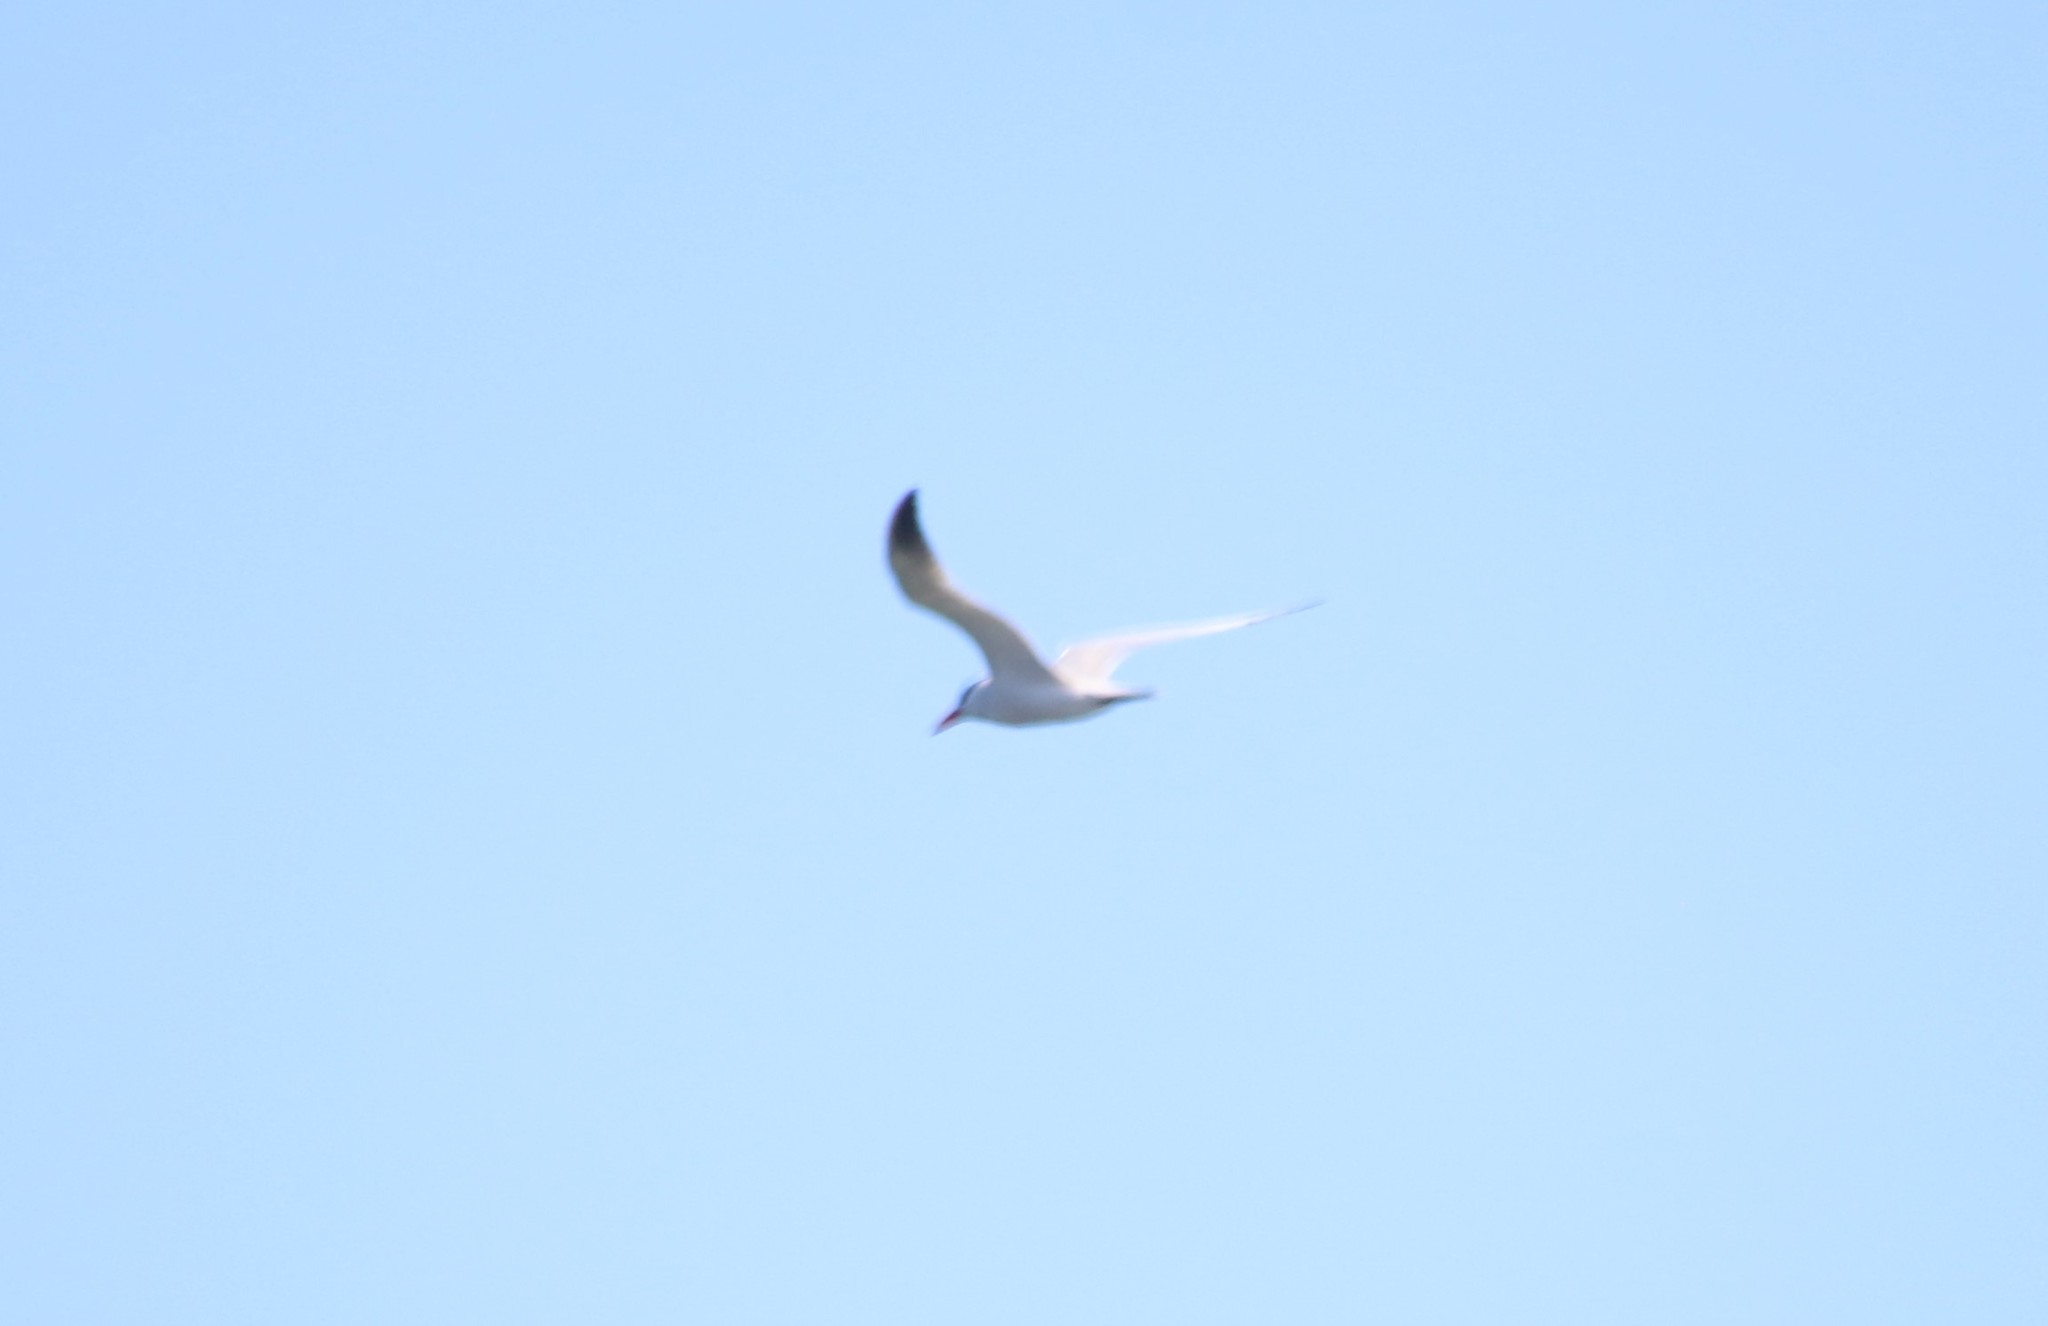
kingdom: Animalia
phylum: Chordata
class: Aves
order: Charadriiformes
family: Laridae
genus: Hydroprogne
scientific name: Hydroprogne caspia
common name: Caspian tern
